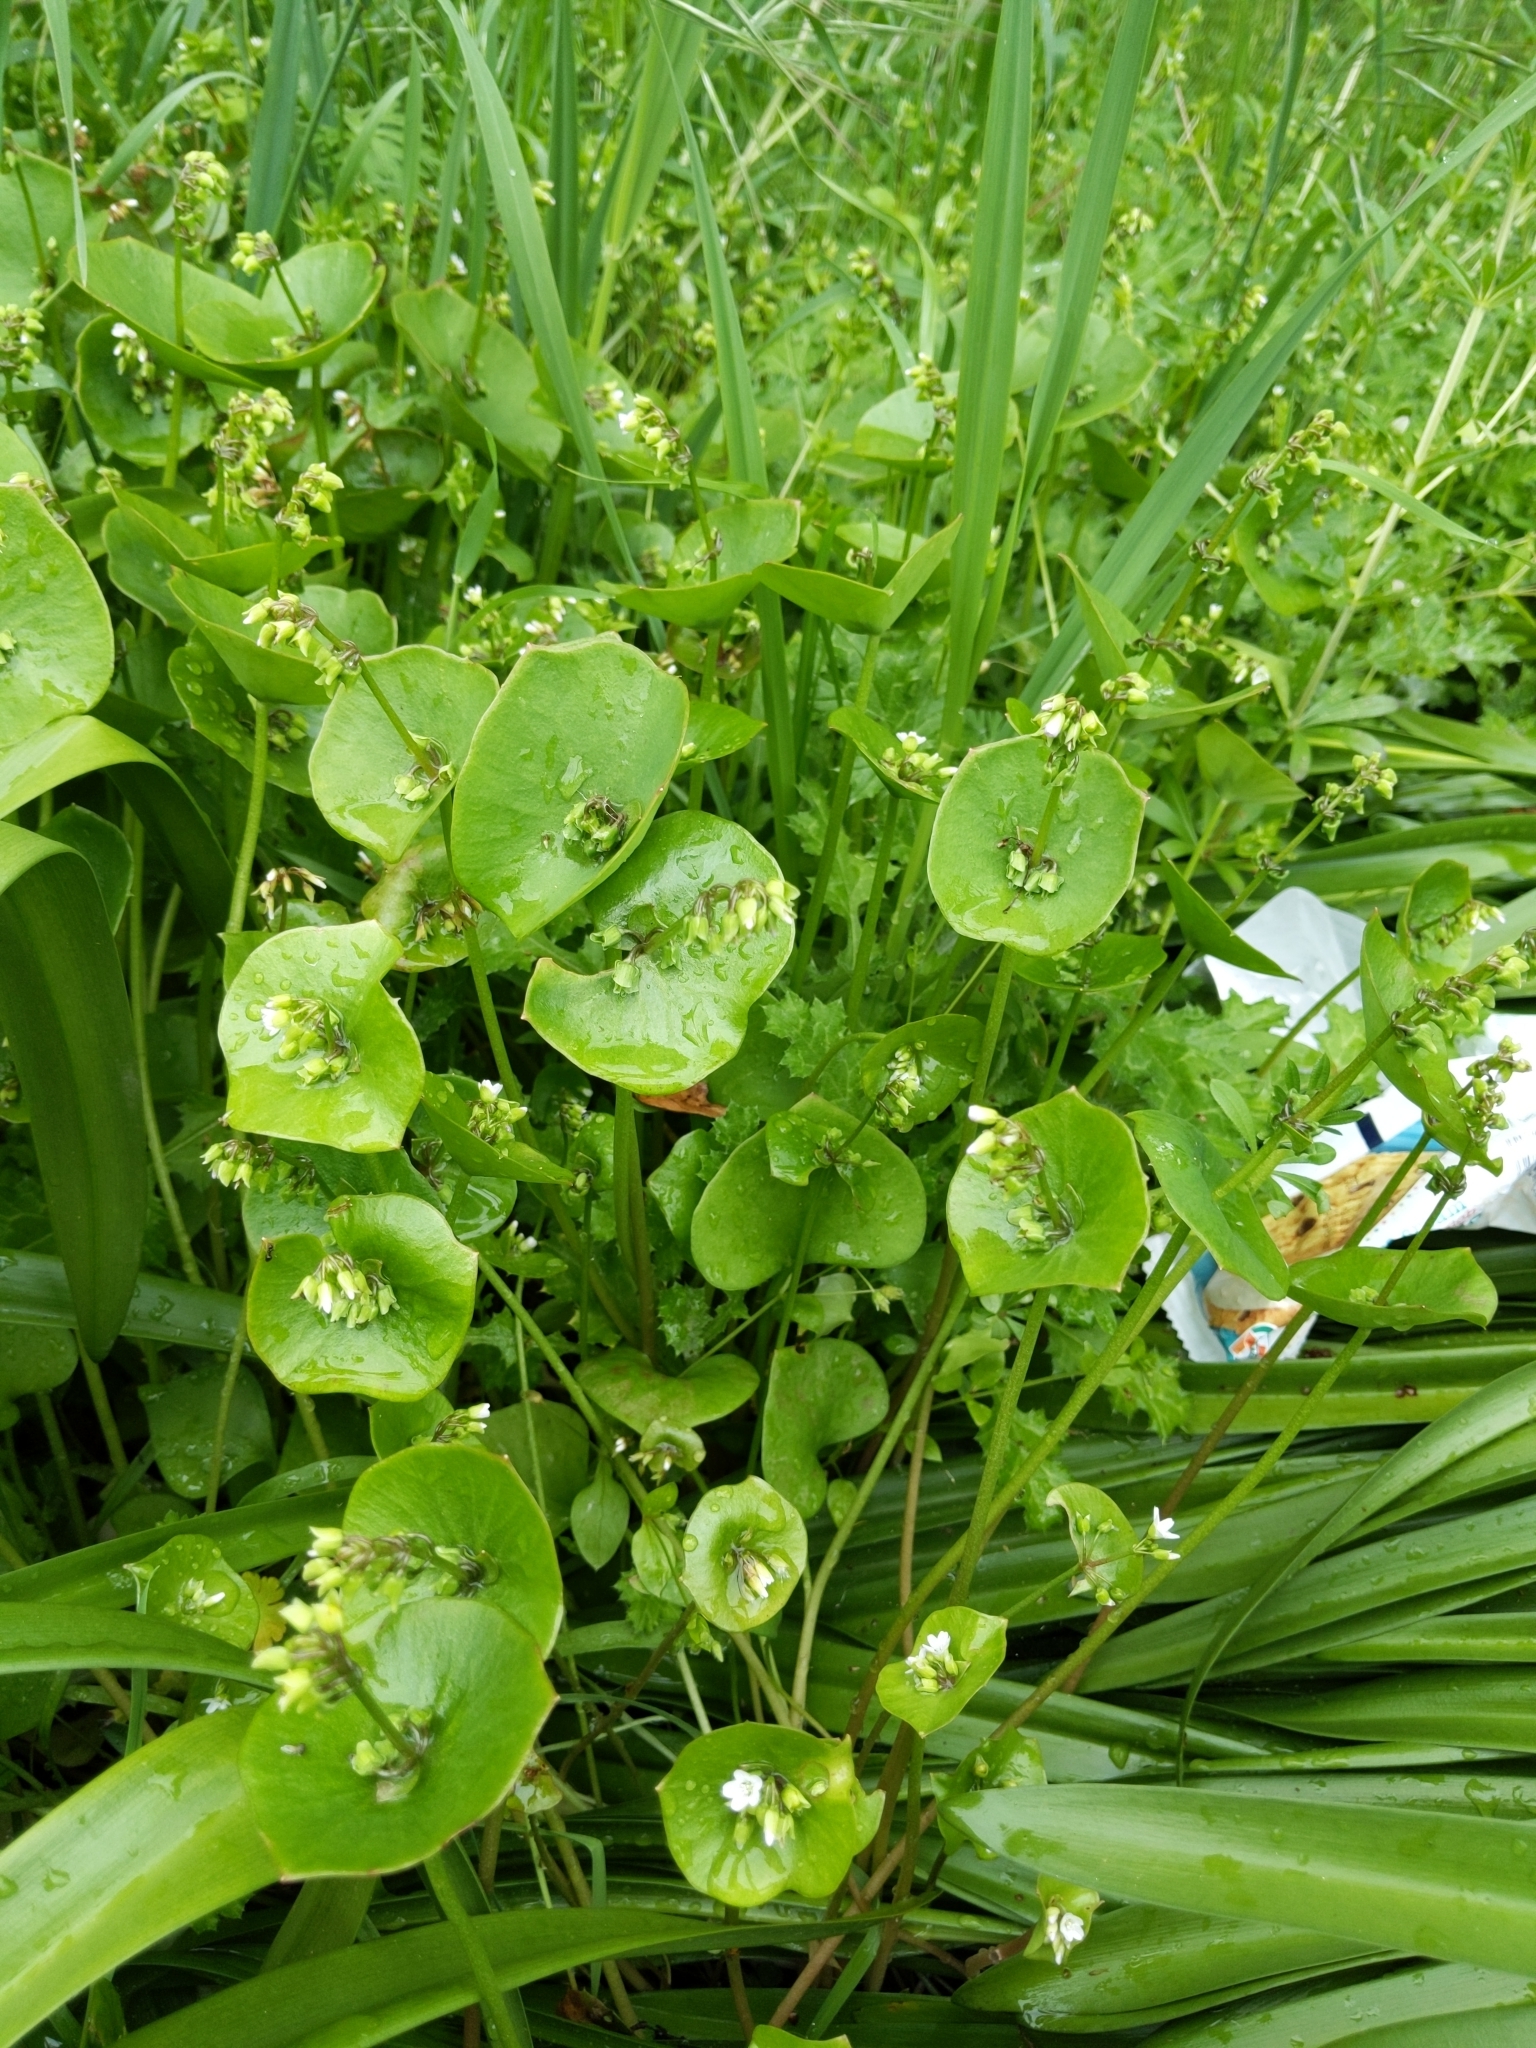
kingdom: Plantae
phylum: Tracheophyta
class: Magnoliopsida
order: Caryophyllales
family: Montiaceae
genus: Claytonia
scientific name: Claytonia perfoliata
